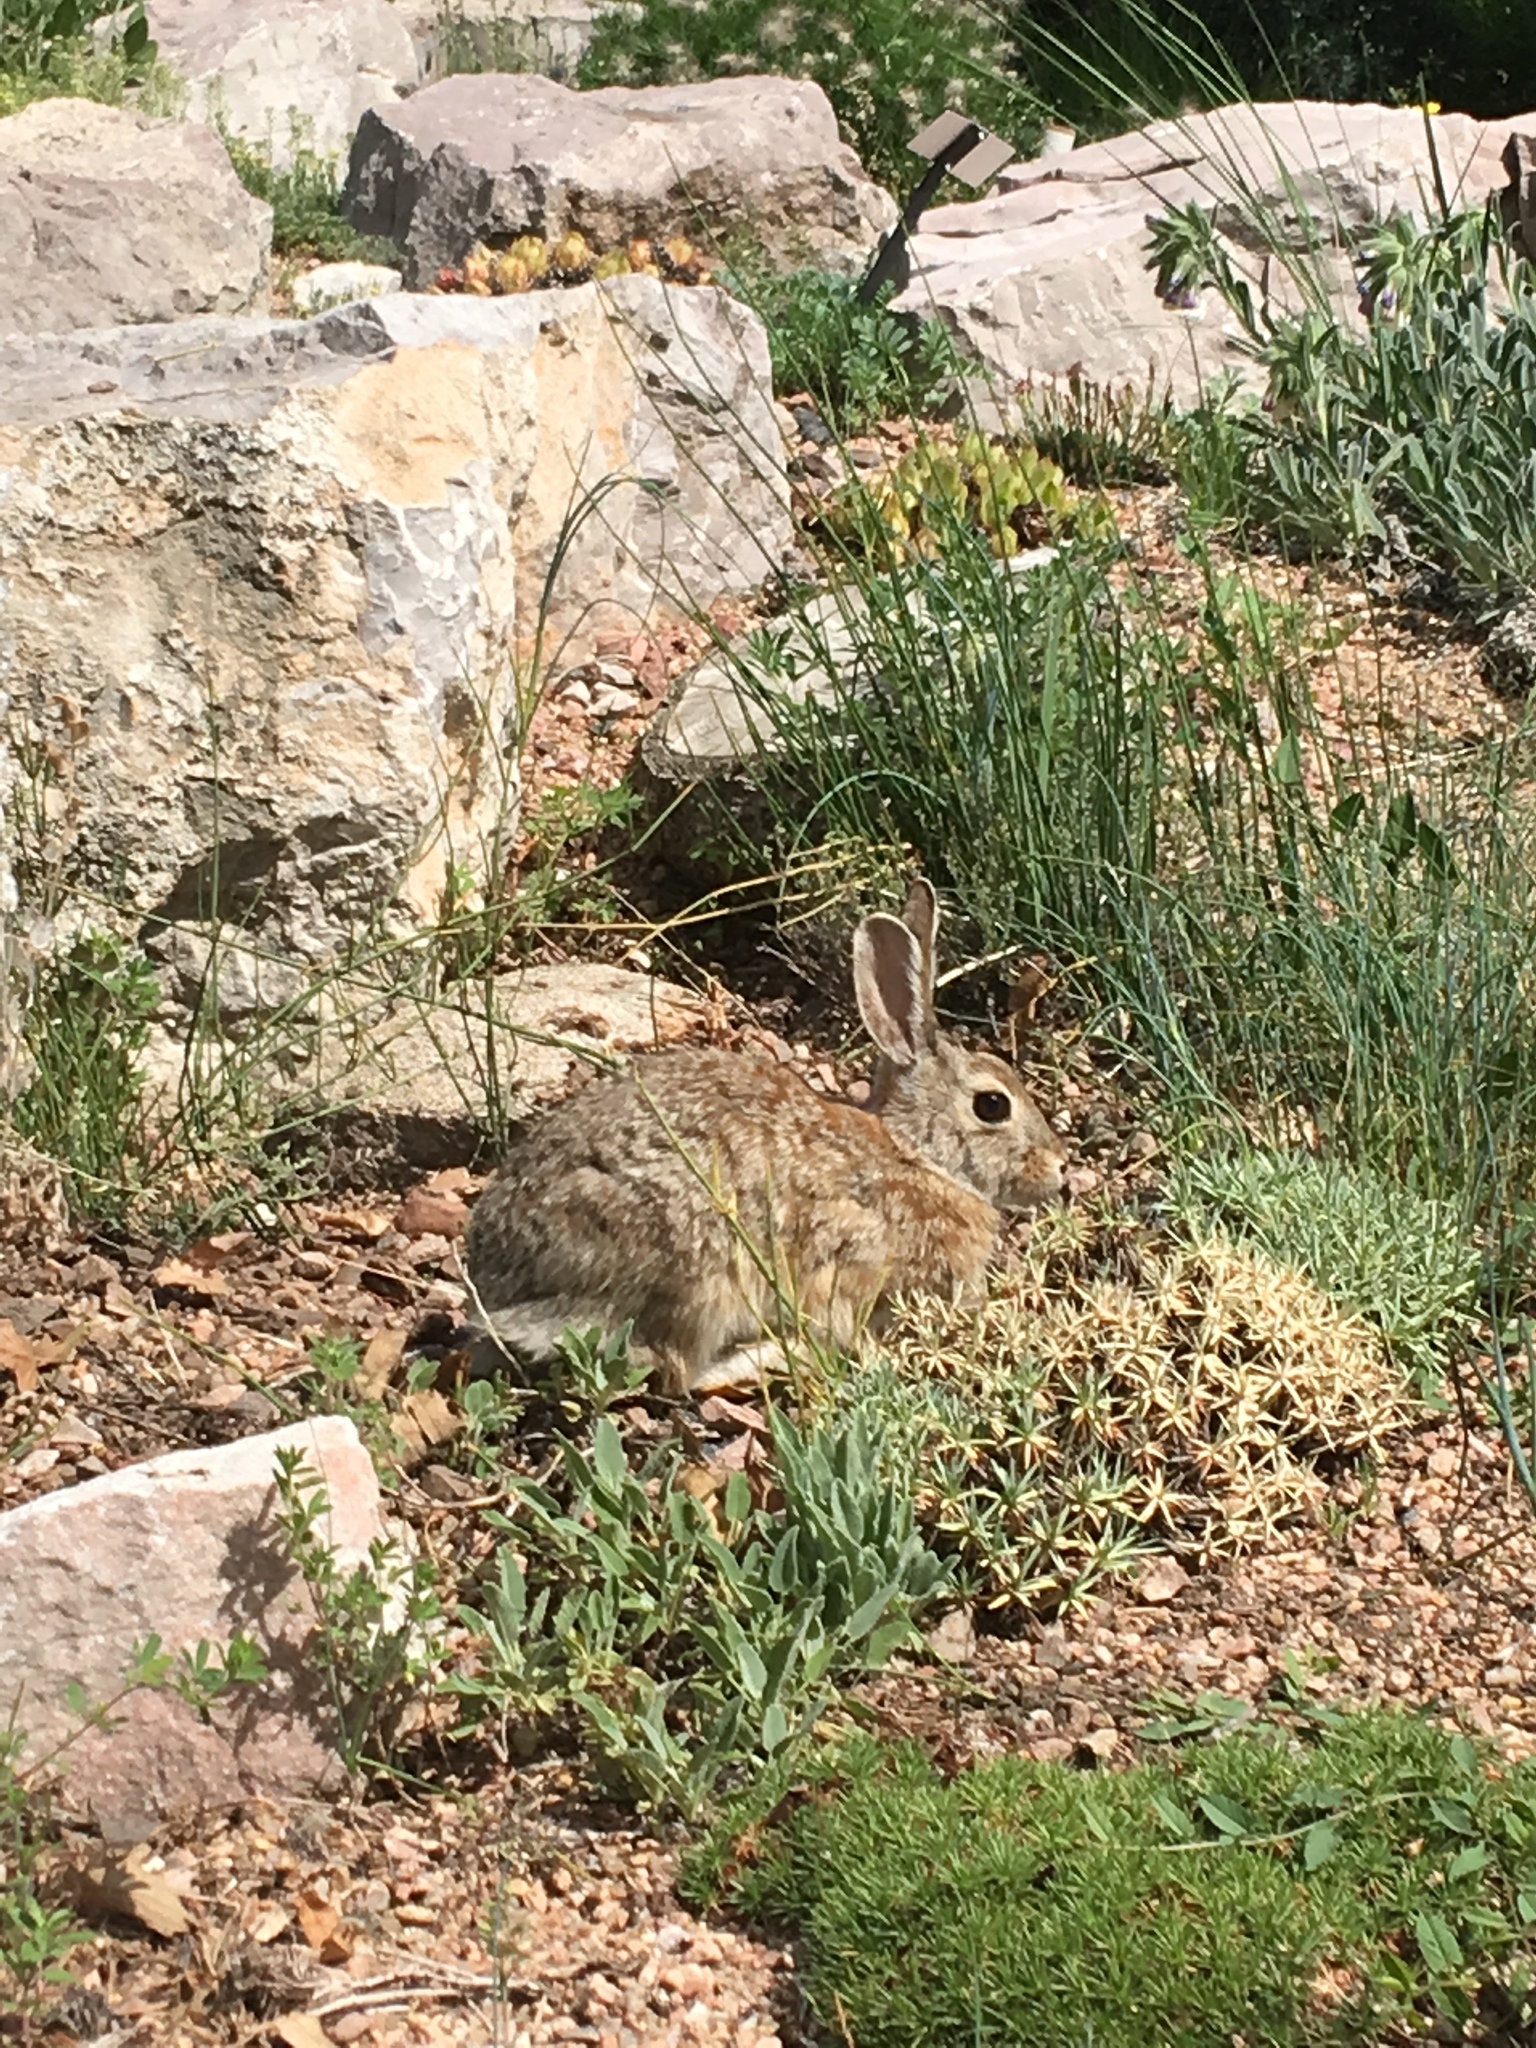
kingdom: Animalia
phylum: Chordata
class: Mammalia
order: Lagomorpha
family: Leporidae
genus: Sylvilagus
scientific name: Sylvilagus audubonii
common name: Desert cottontail
